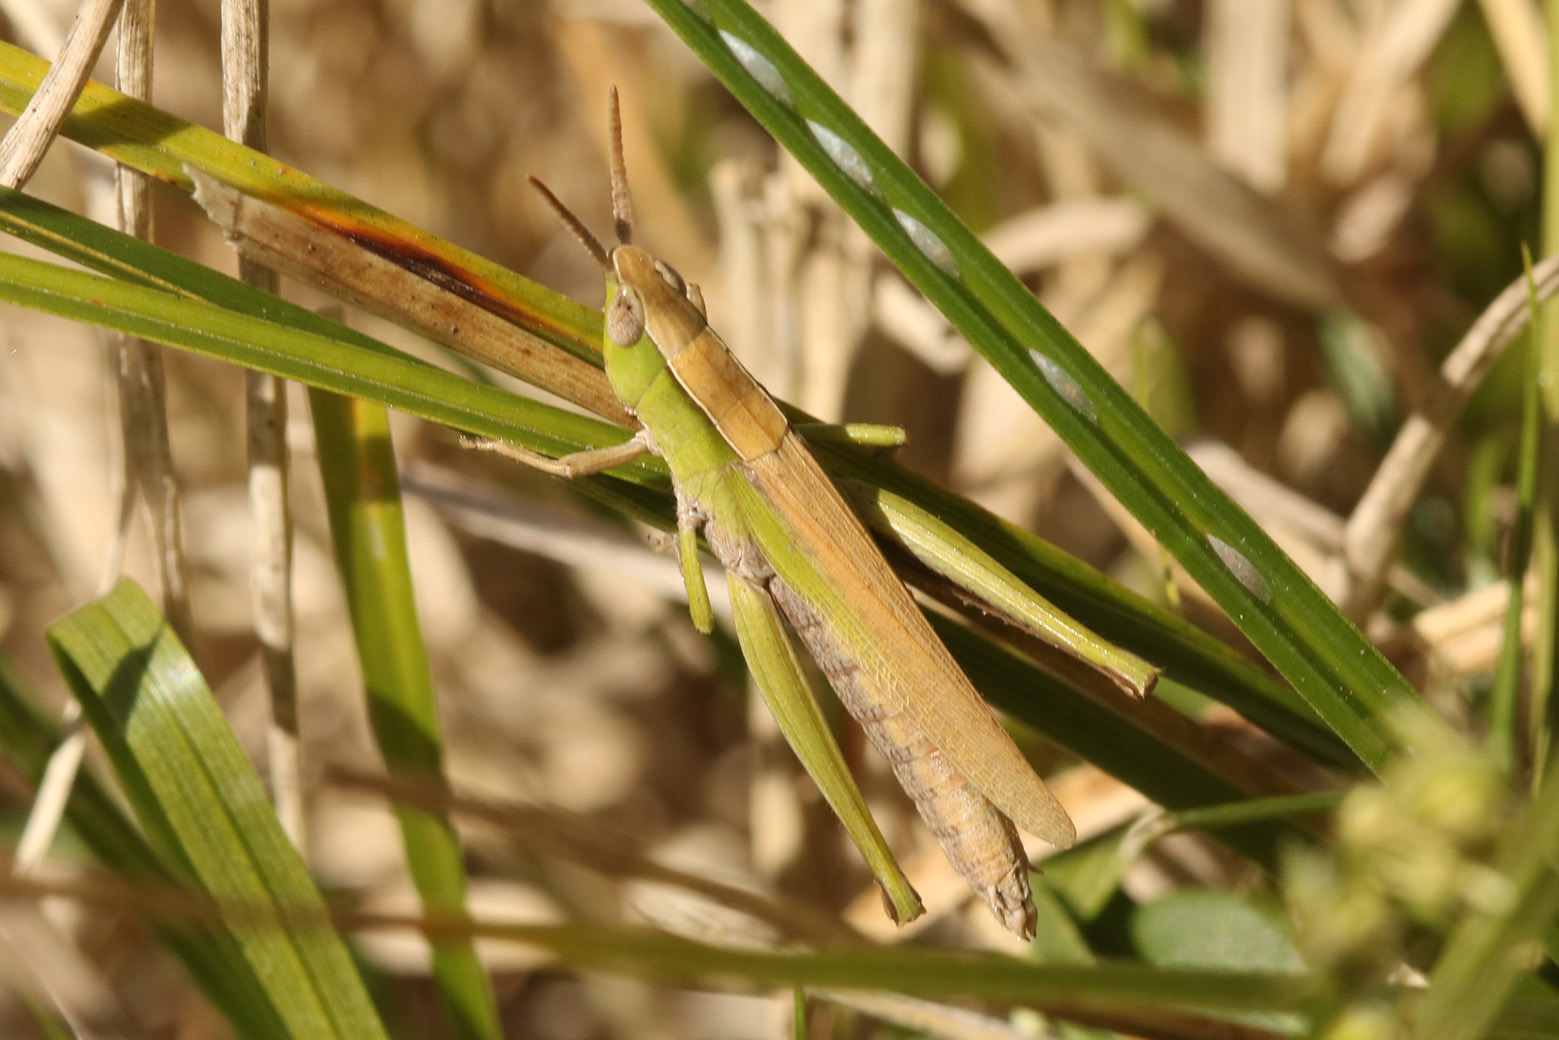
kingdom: Animalia
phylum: Arthropoda
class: Insecta
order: Orthoptera
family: Acrididae
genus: Laplatacris
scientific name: Laplatacris dispar
